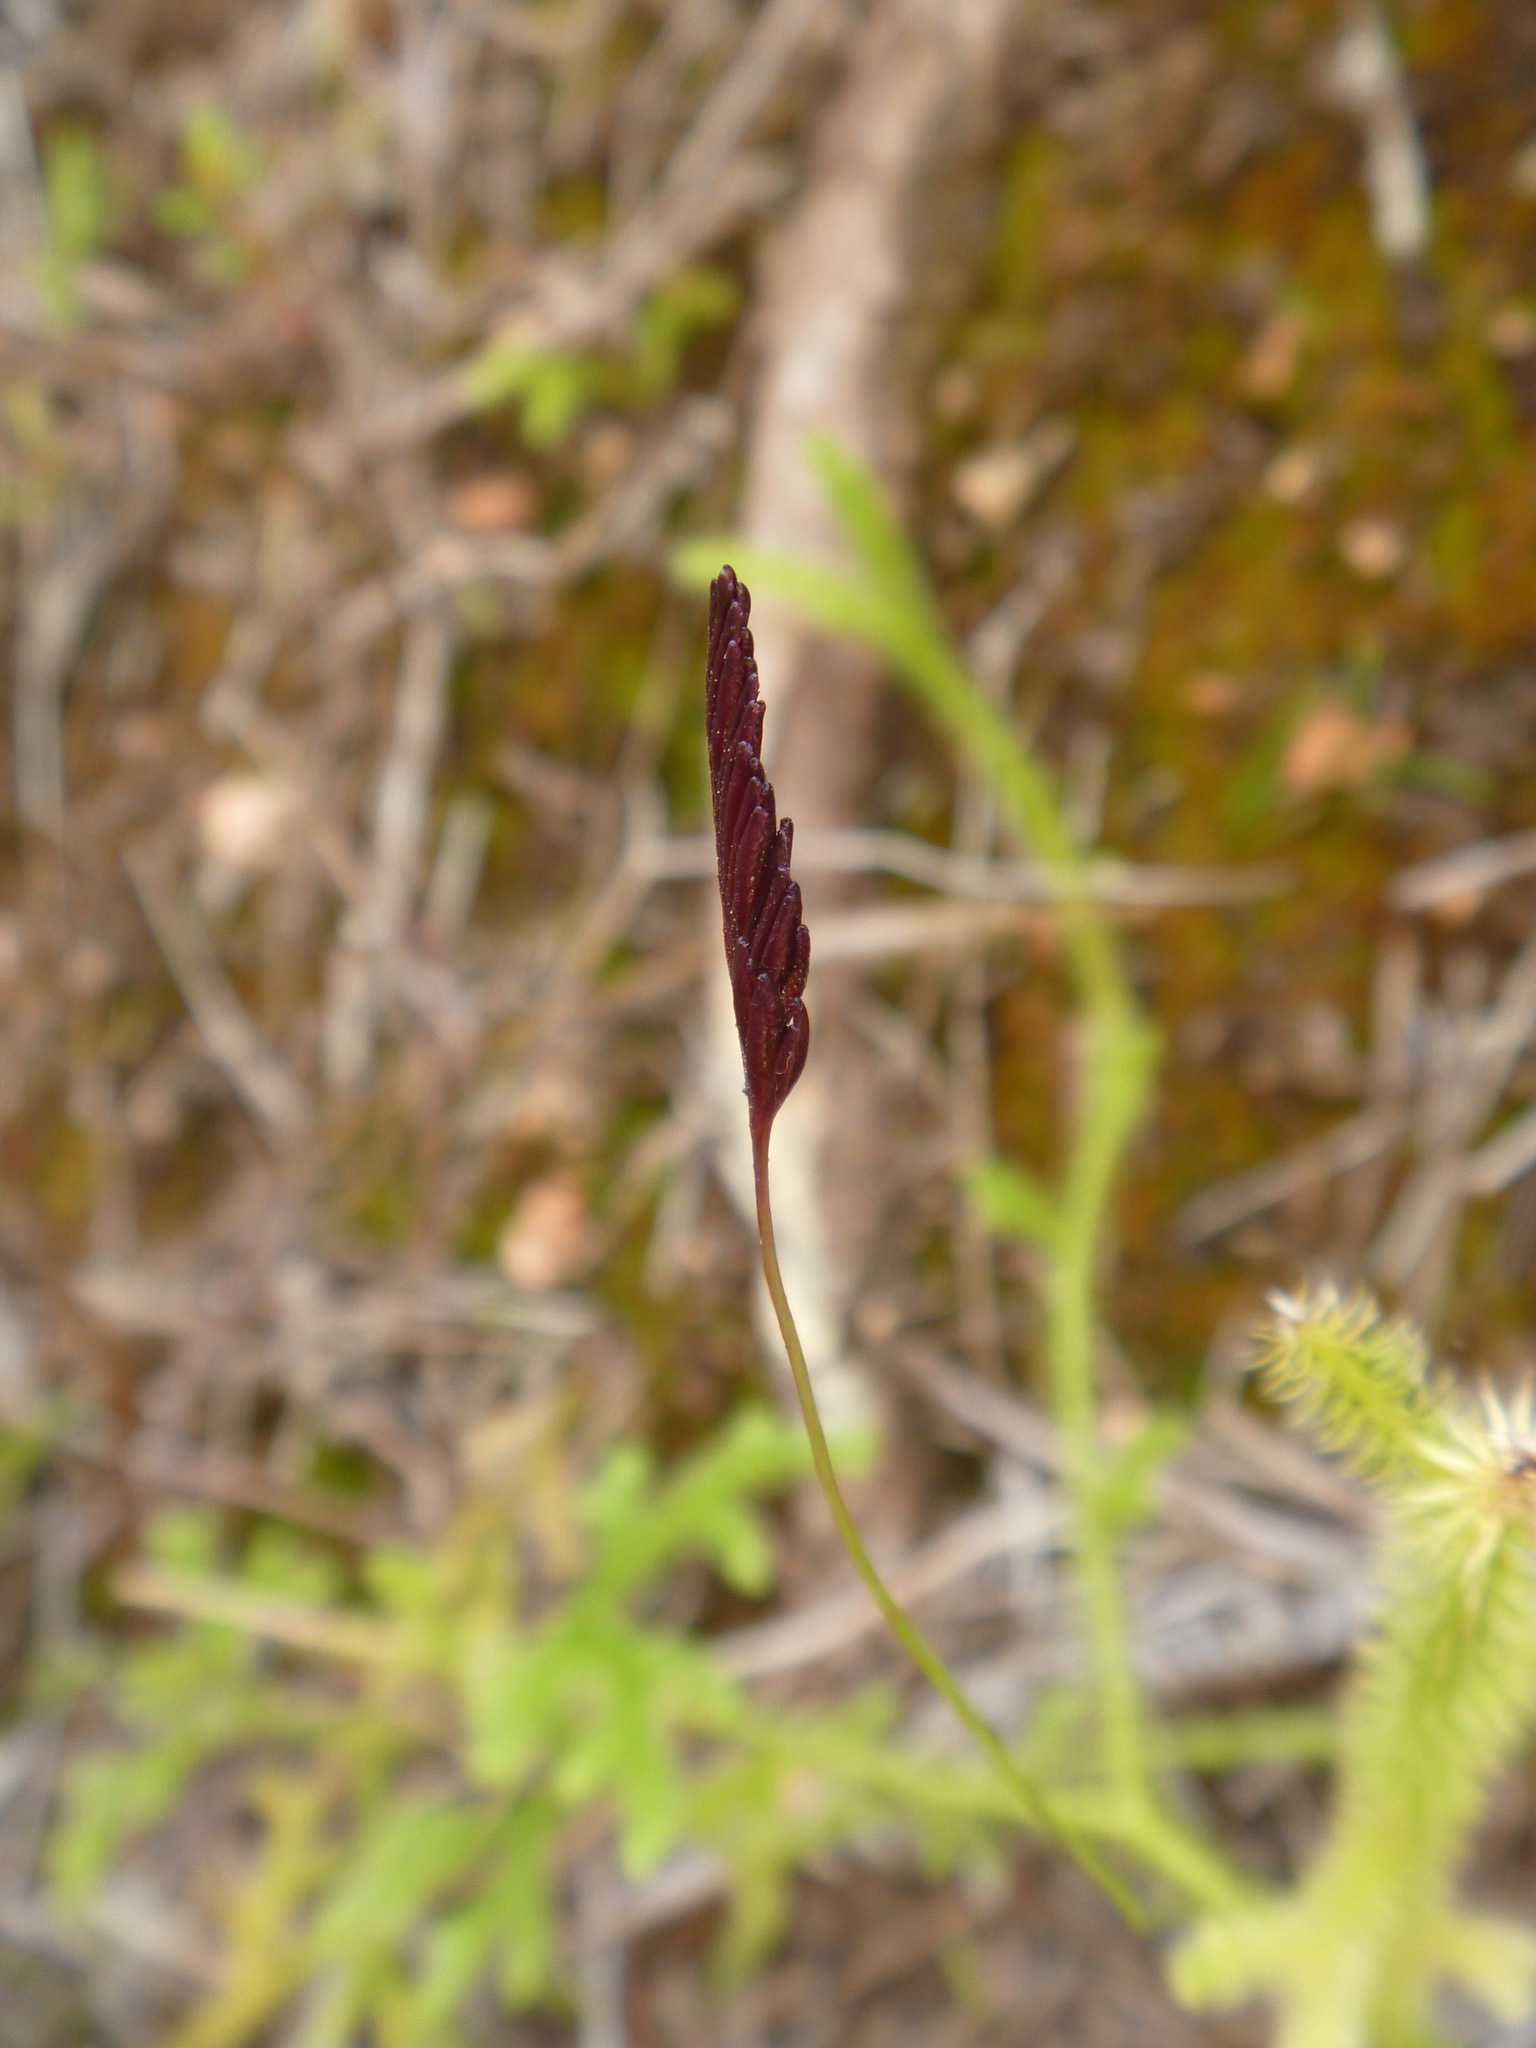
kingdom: Plantae
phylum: Tracheophyta
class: Polypodiopsida
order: Schizaeales
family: Schizaeaceae
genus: Microschizaea
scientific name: Microschizaea fistulosa
